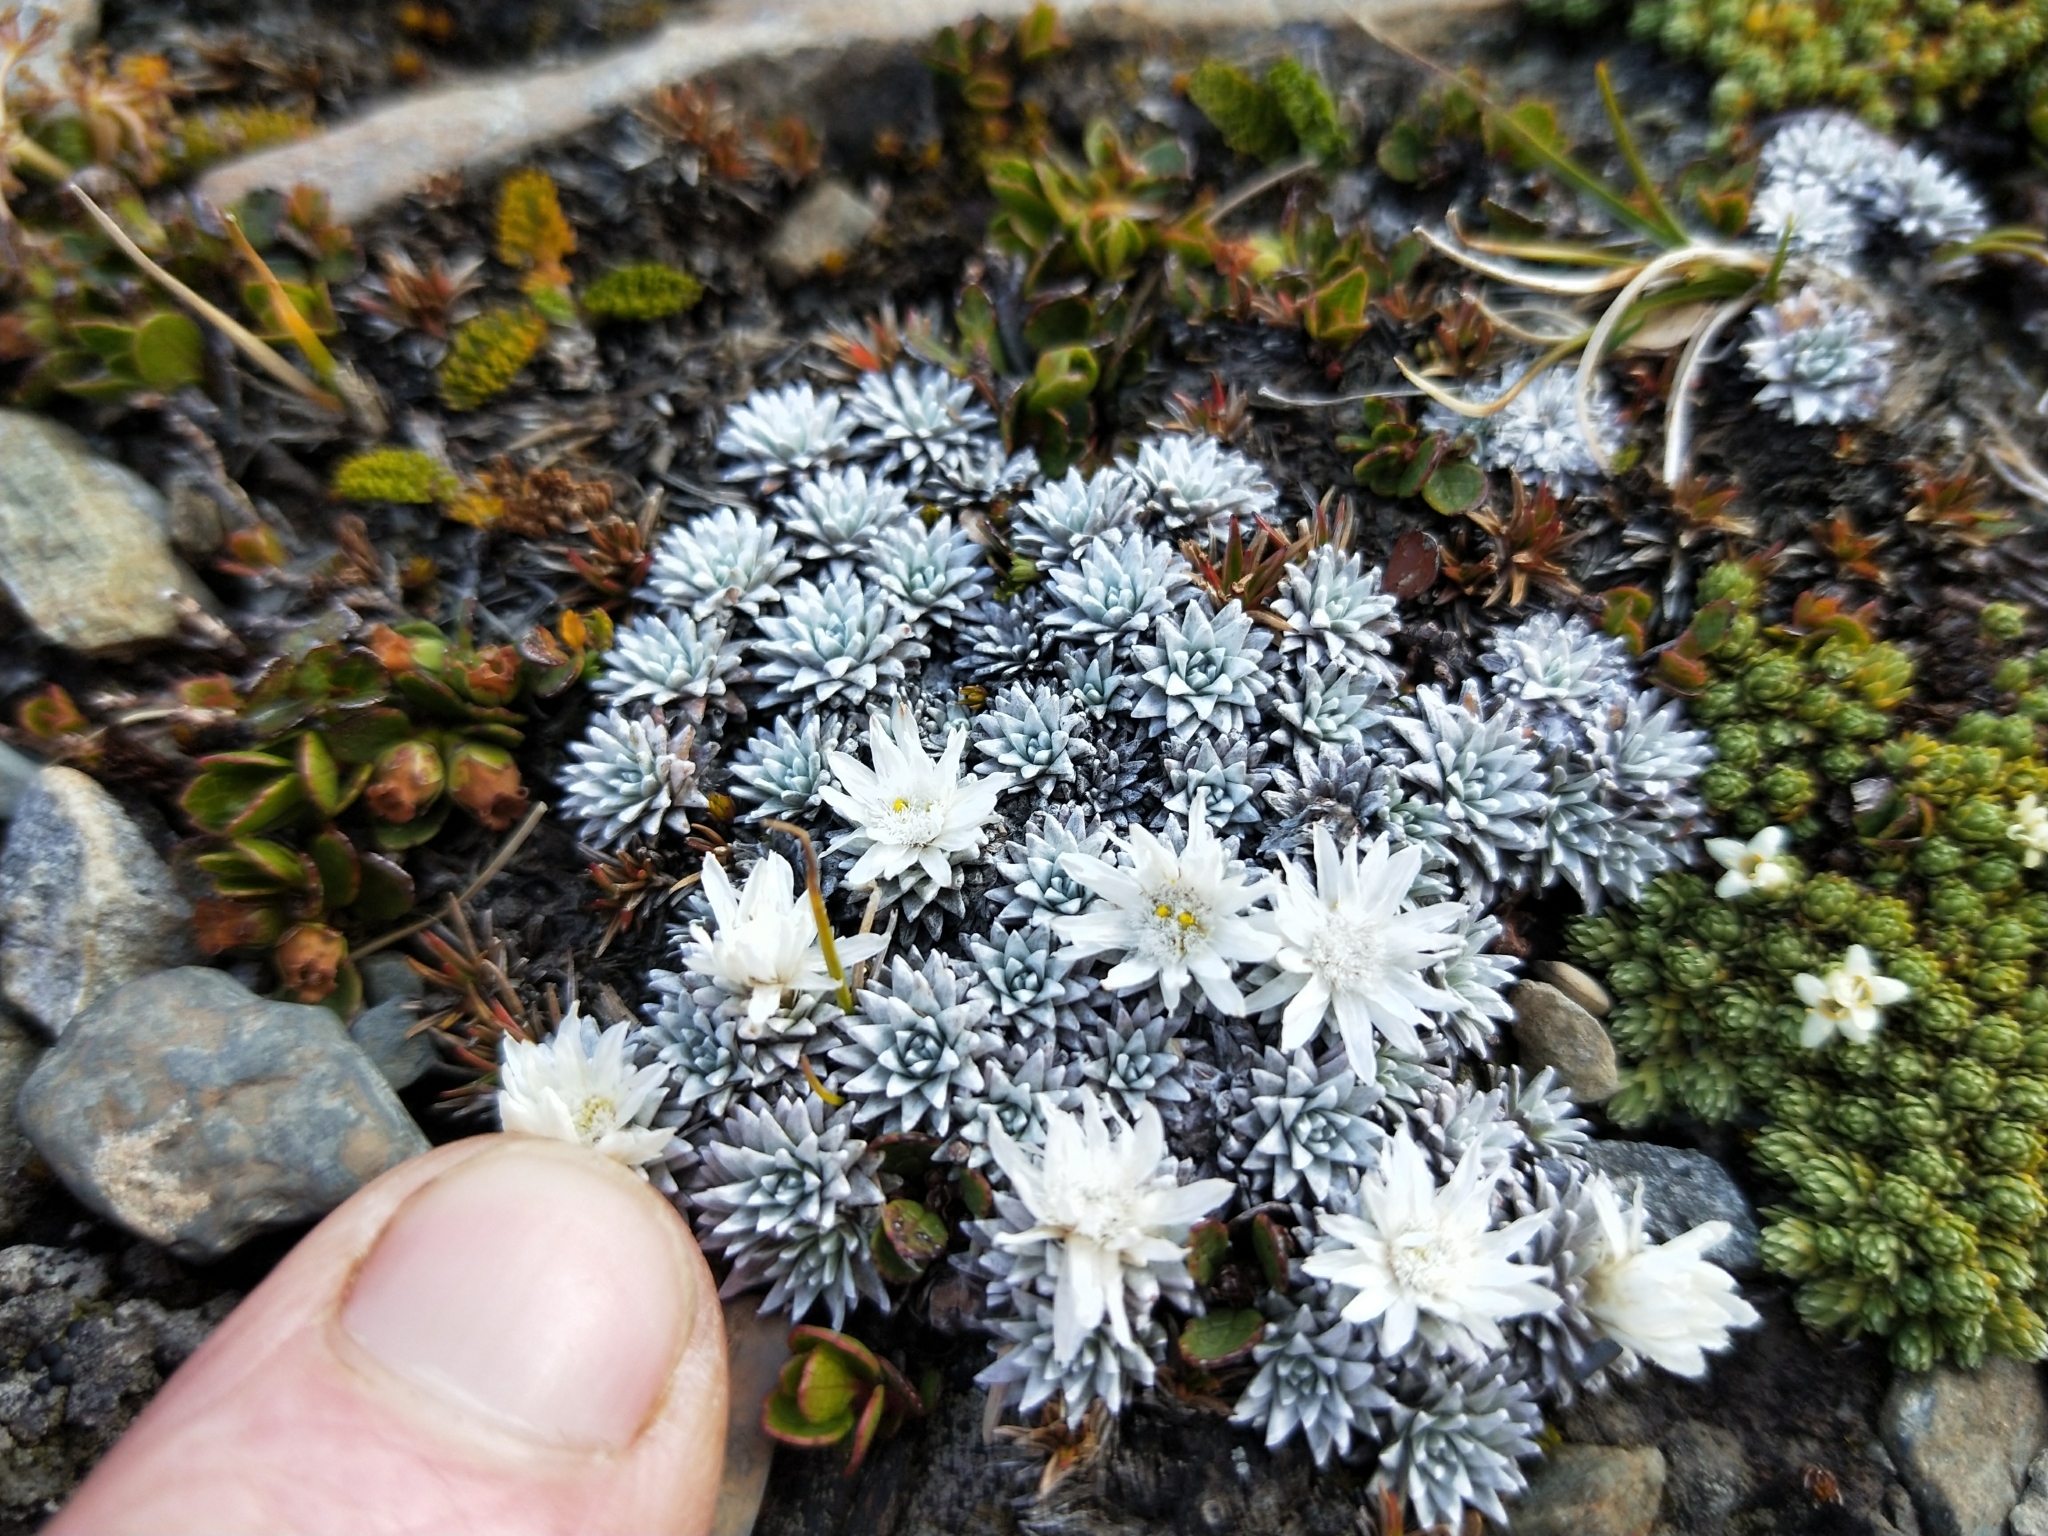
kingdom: Plantae
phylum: Tracheophyta
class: Magnoliopsida
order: Asterales
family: Asteraceae
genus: Raoulia
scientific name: Raoulia grandiflora
